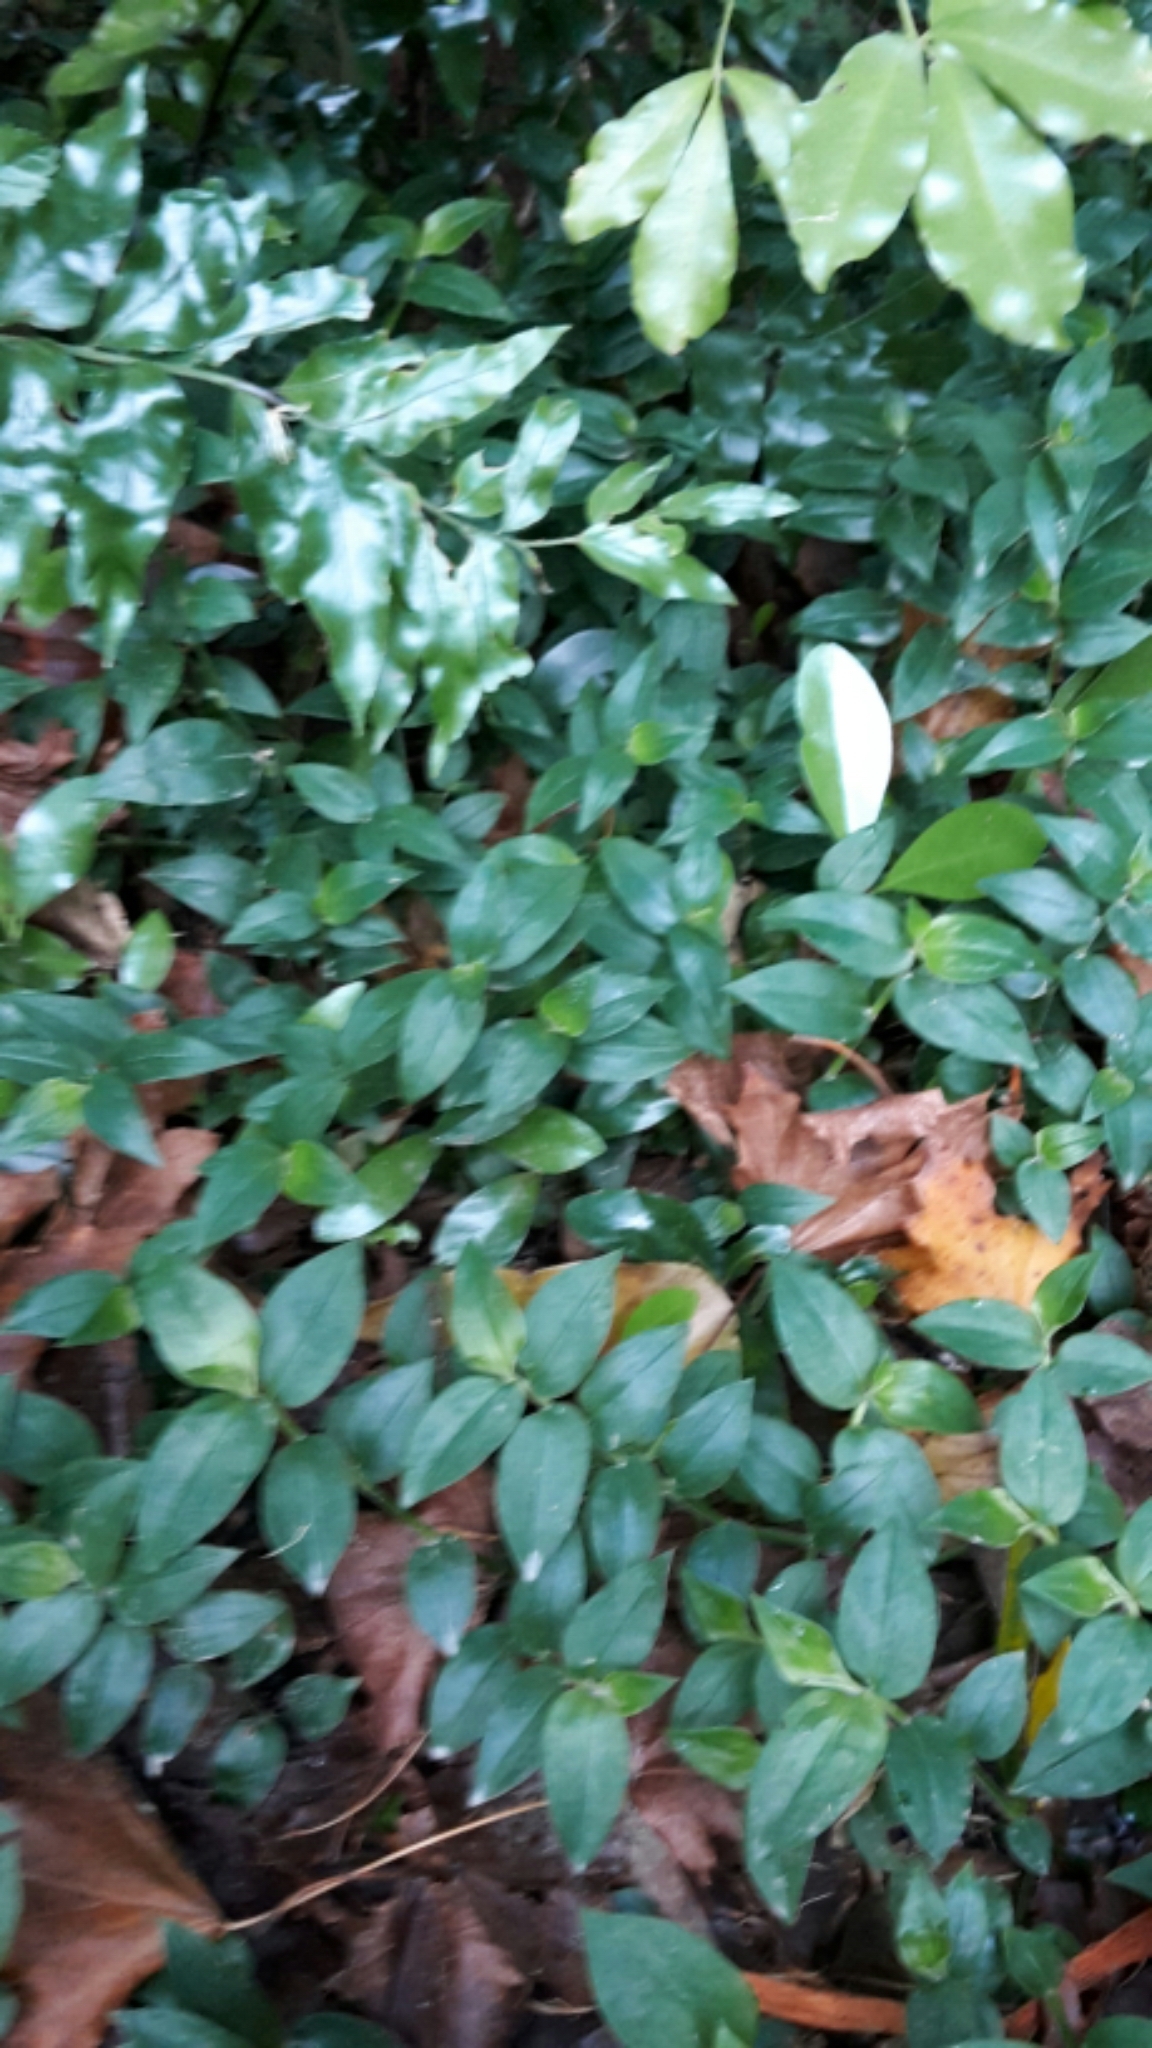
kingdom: Plantae
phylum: Tracheophyta
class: Liliopsida
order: Commelinales
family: Commelinaceae
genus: Tradescantia
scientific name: Tradescantia fluminensis
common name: Wandering-jew
